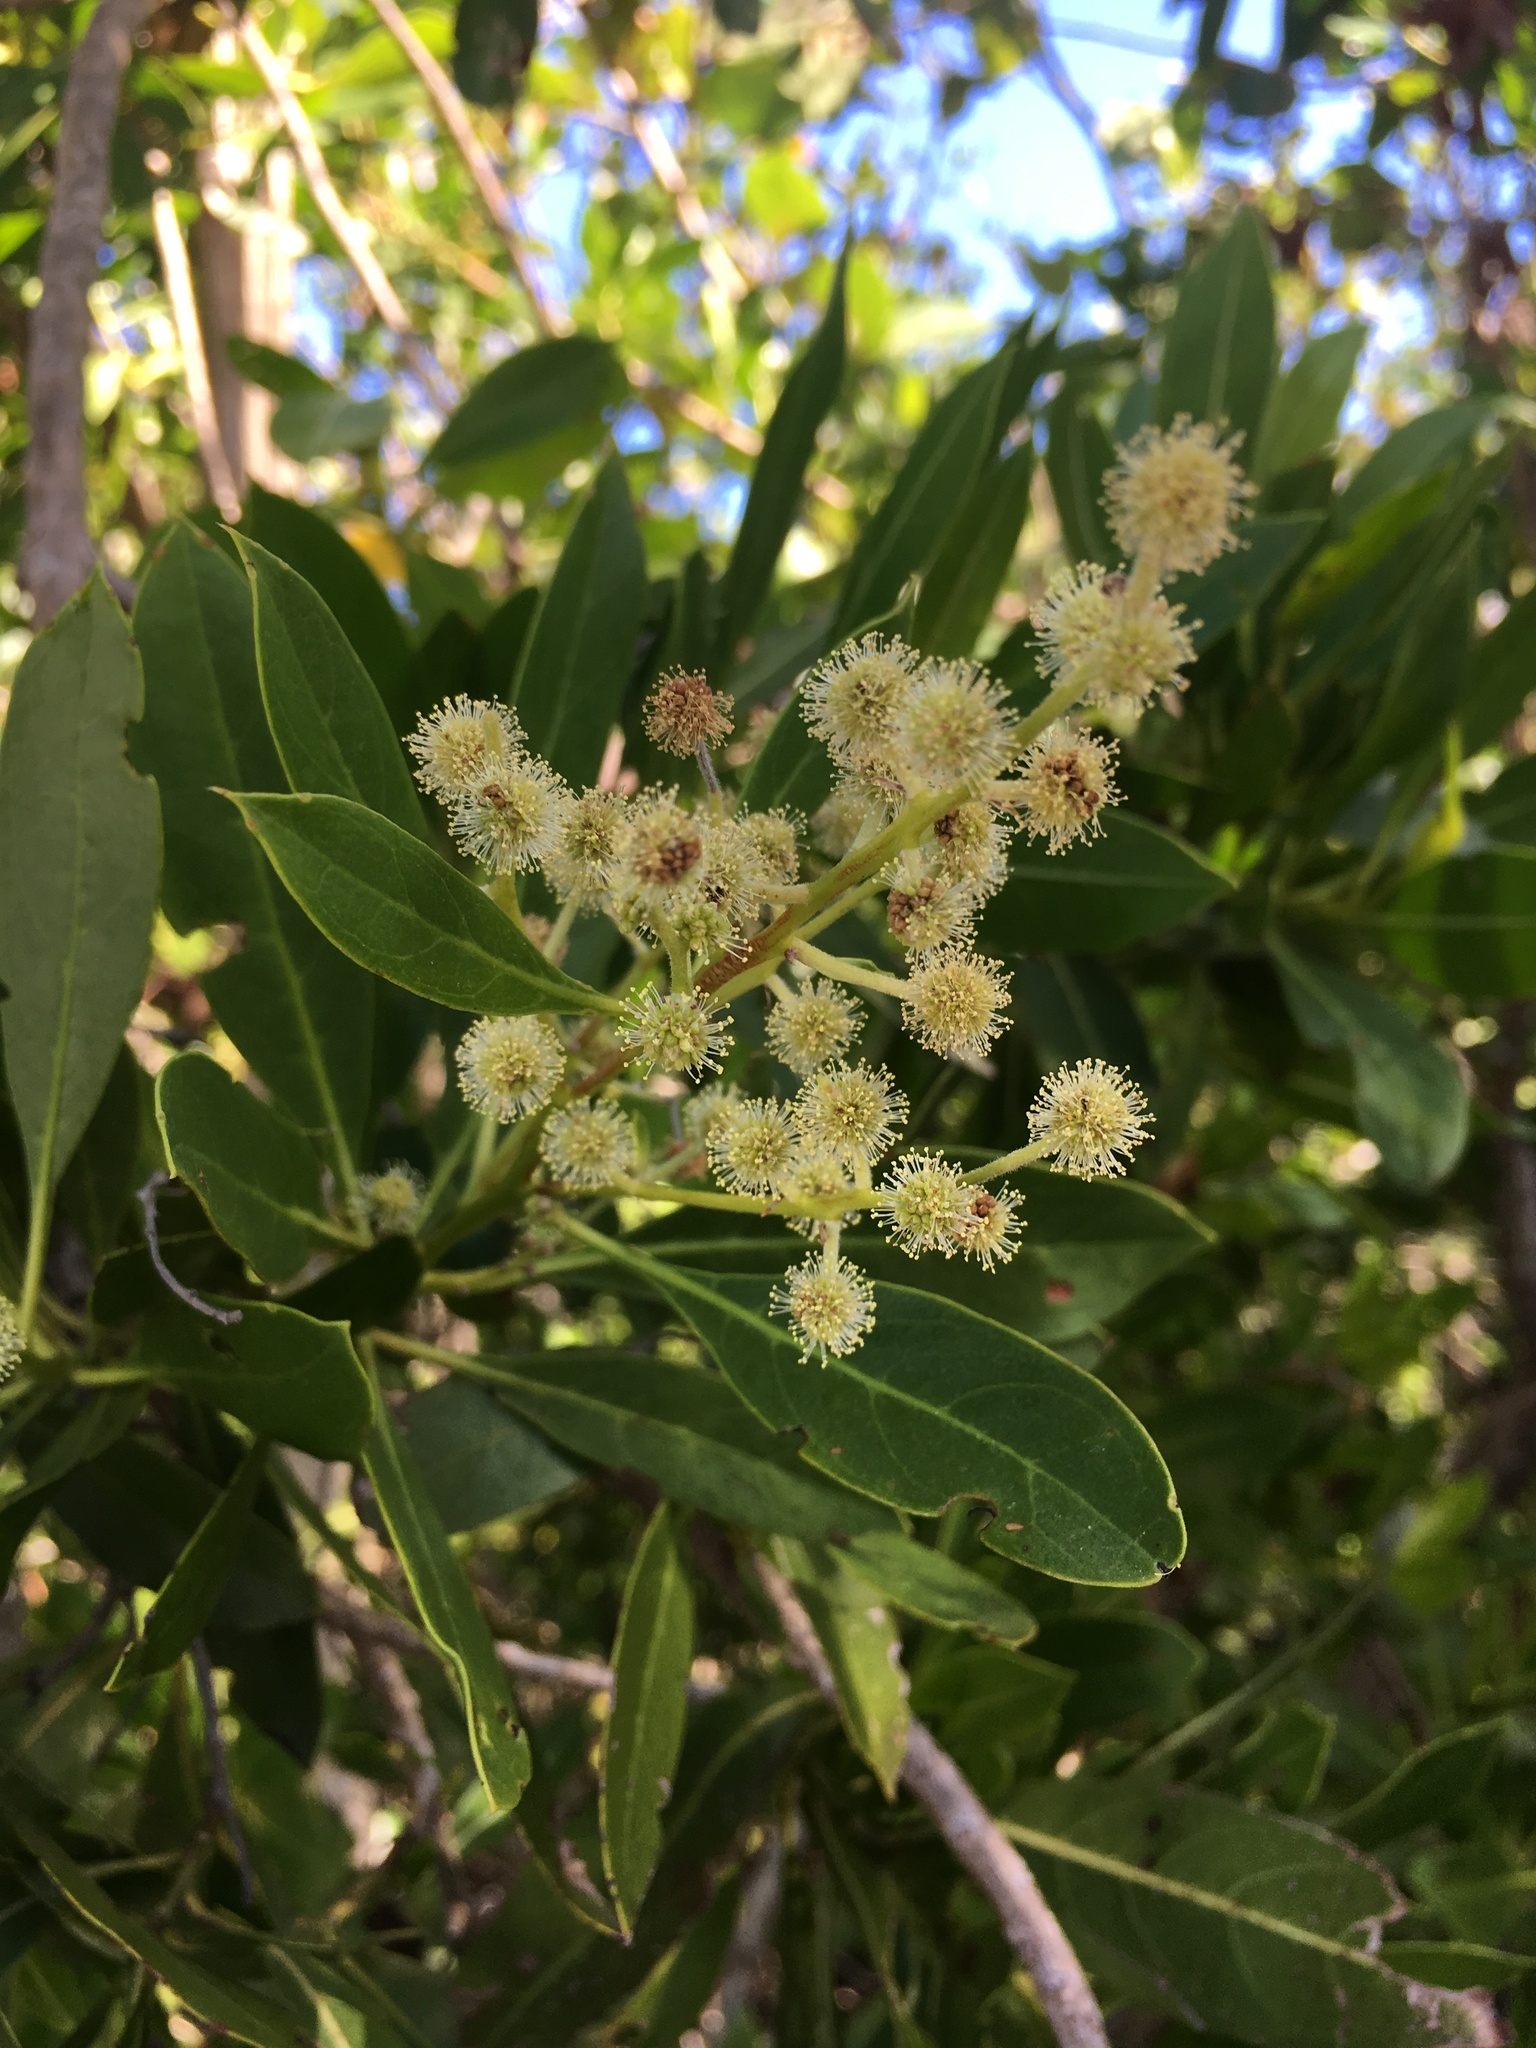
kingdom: Plantae
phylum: Tracheophyta
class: Magnoliopsida
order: Myrtales
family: Combretaceae
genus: Conocarpus
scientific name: Conocarpus erectus
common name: Button mangrove
